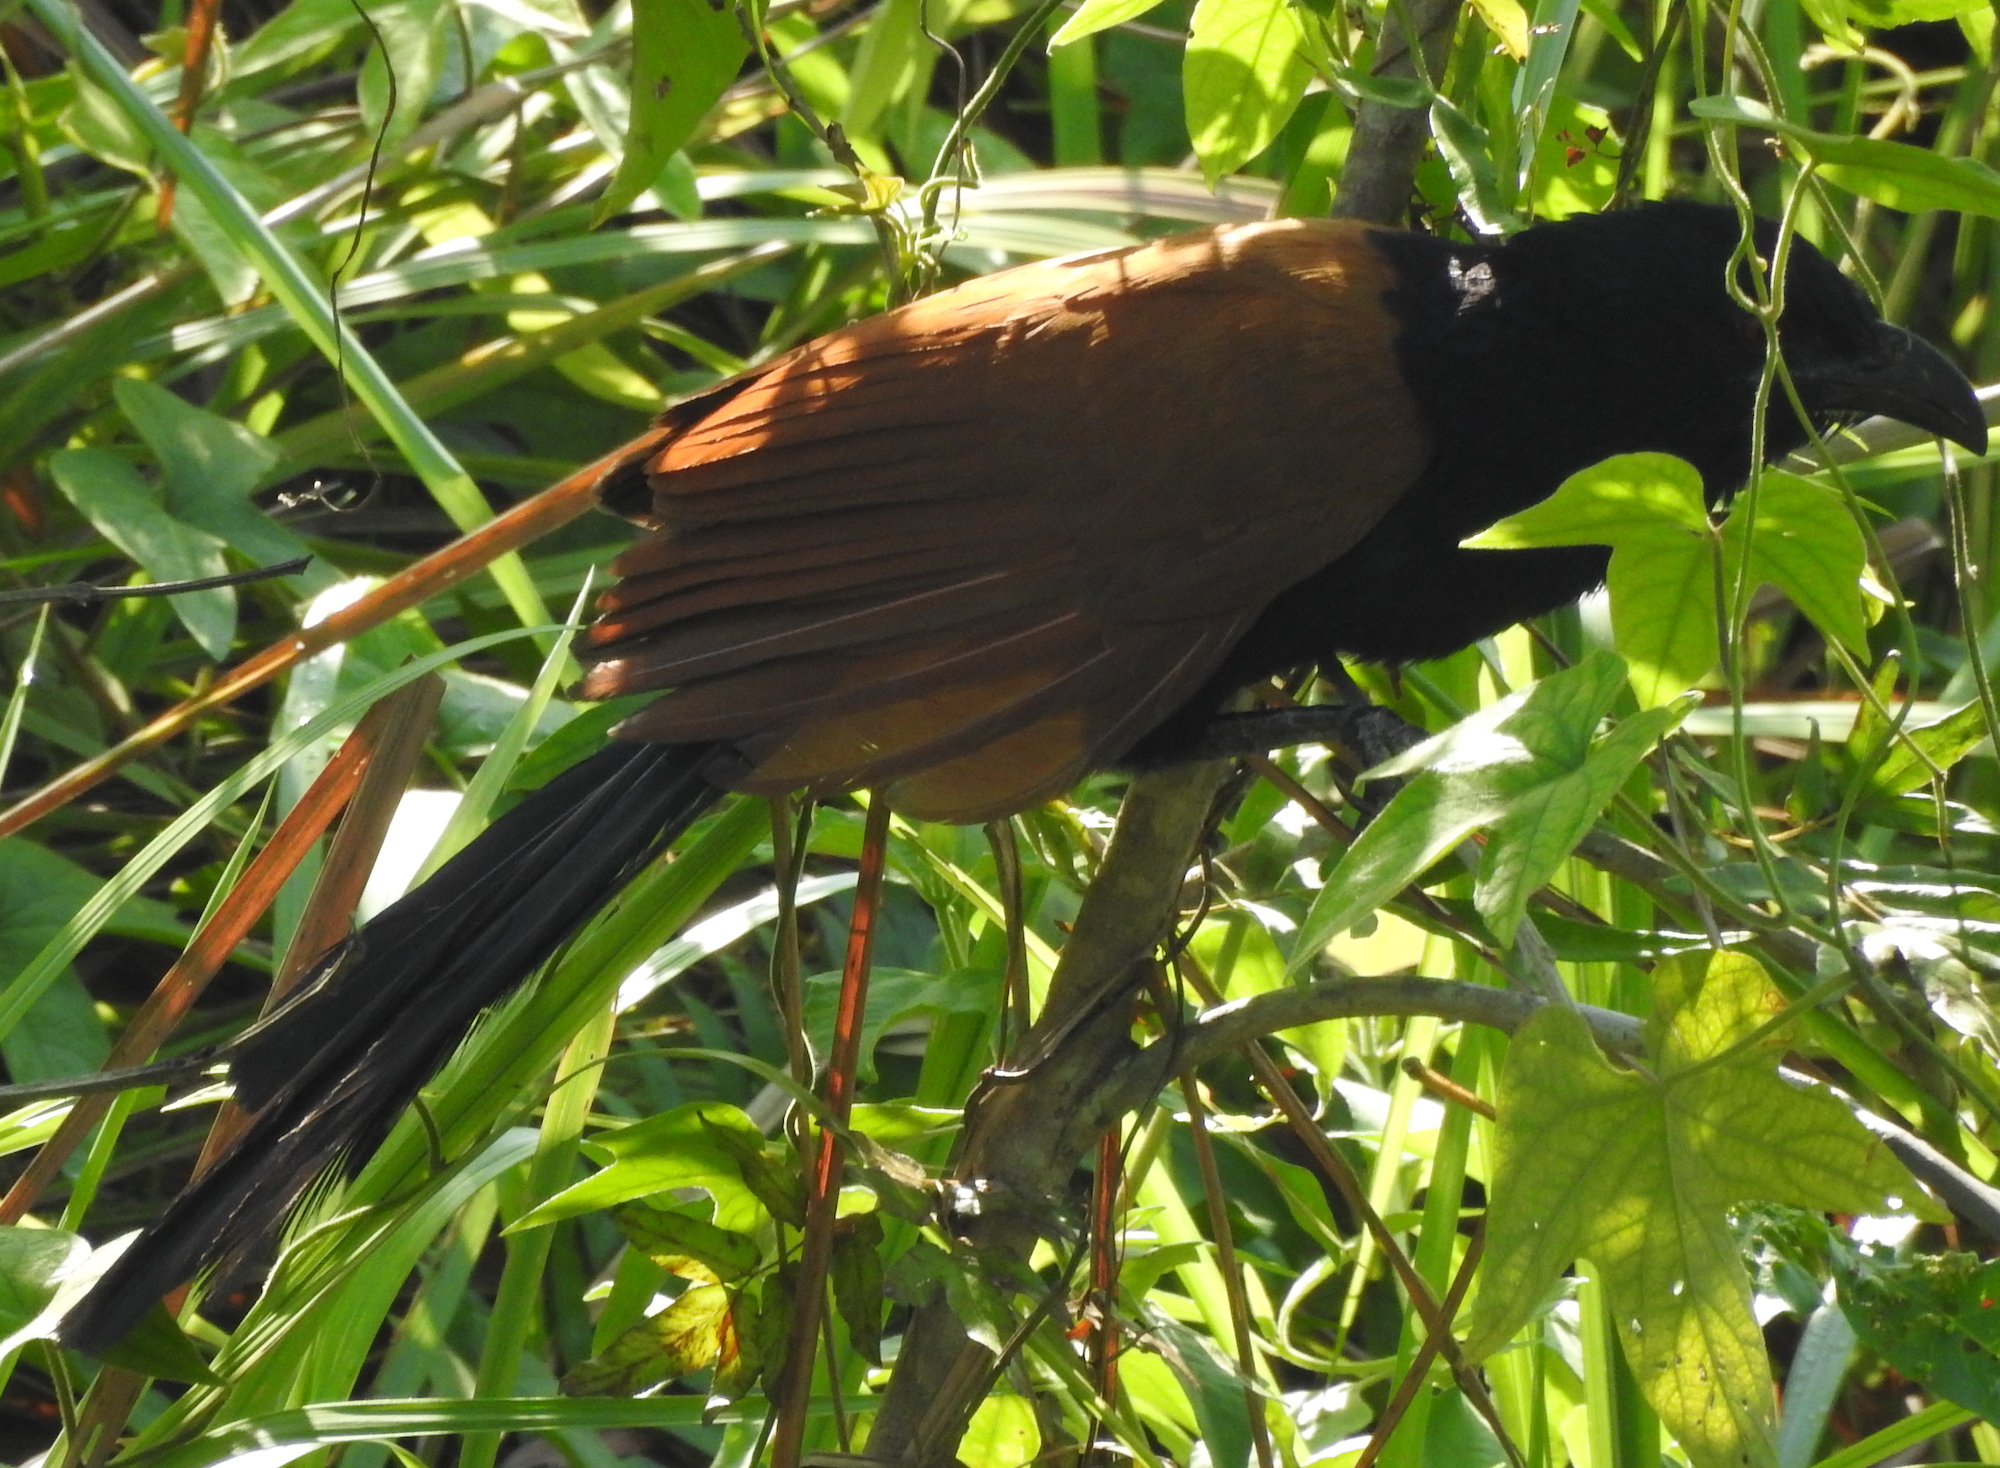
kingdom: Animalia
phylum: Chordata
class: Aves
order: Cuculiformes
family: Cuculidae
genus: Centropus
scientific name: Centropus sinensis
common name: Greater coucal
